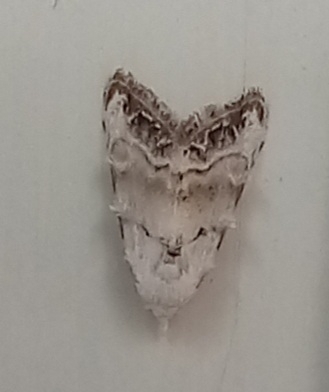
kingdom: Animalia
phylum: Arthropoda
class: Insecta
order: Lepidoptera
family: Nolidae
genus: Nola
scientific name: Nola infantula
